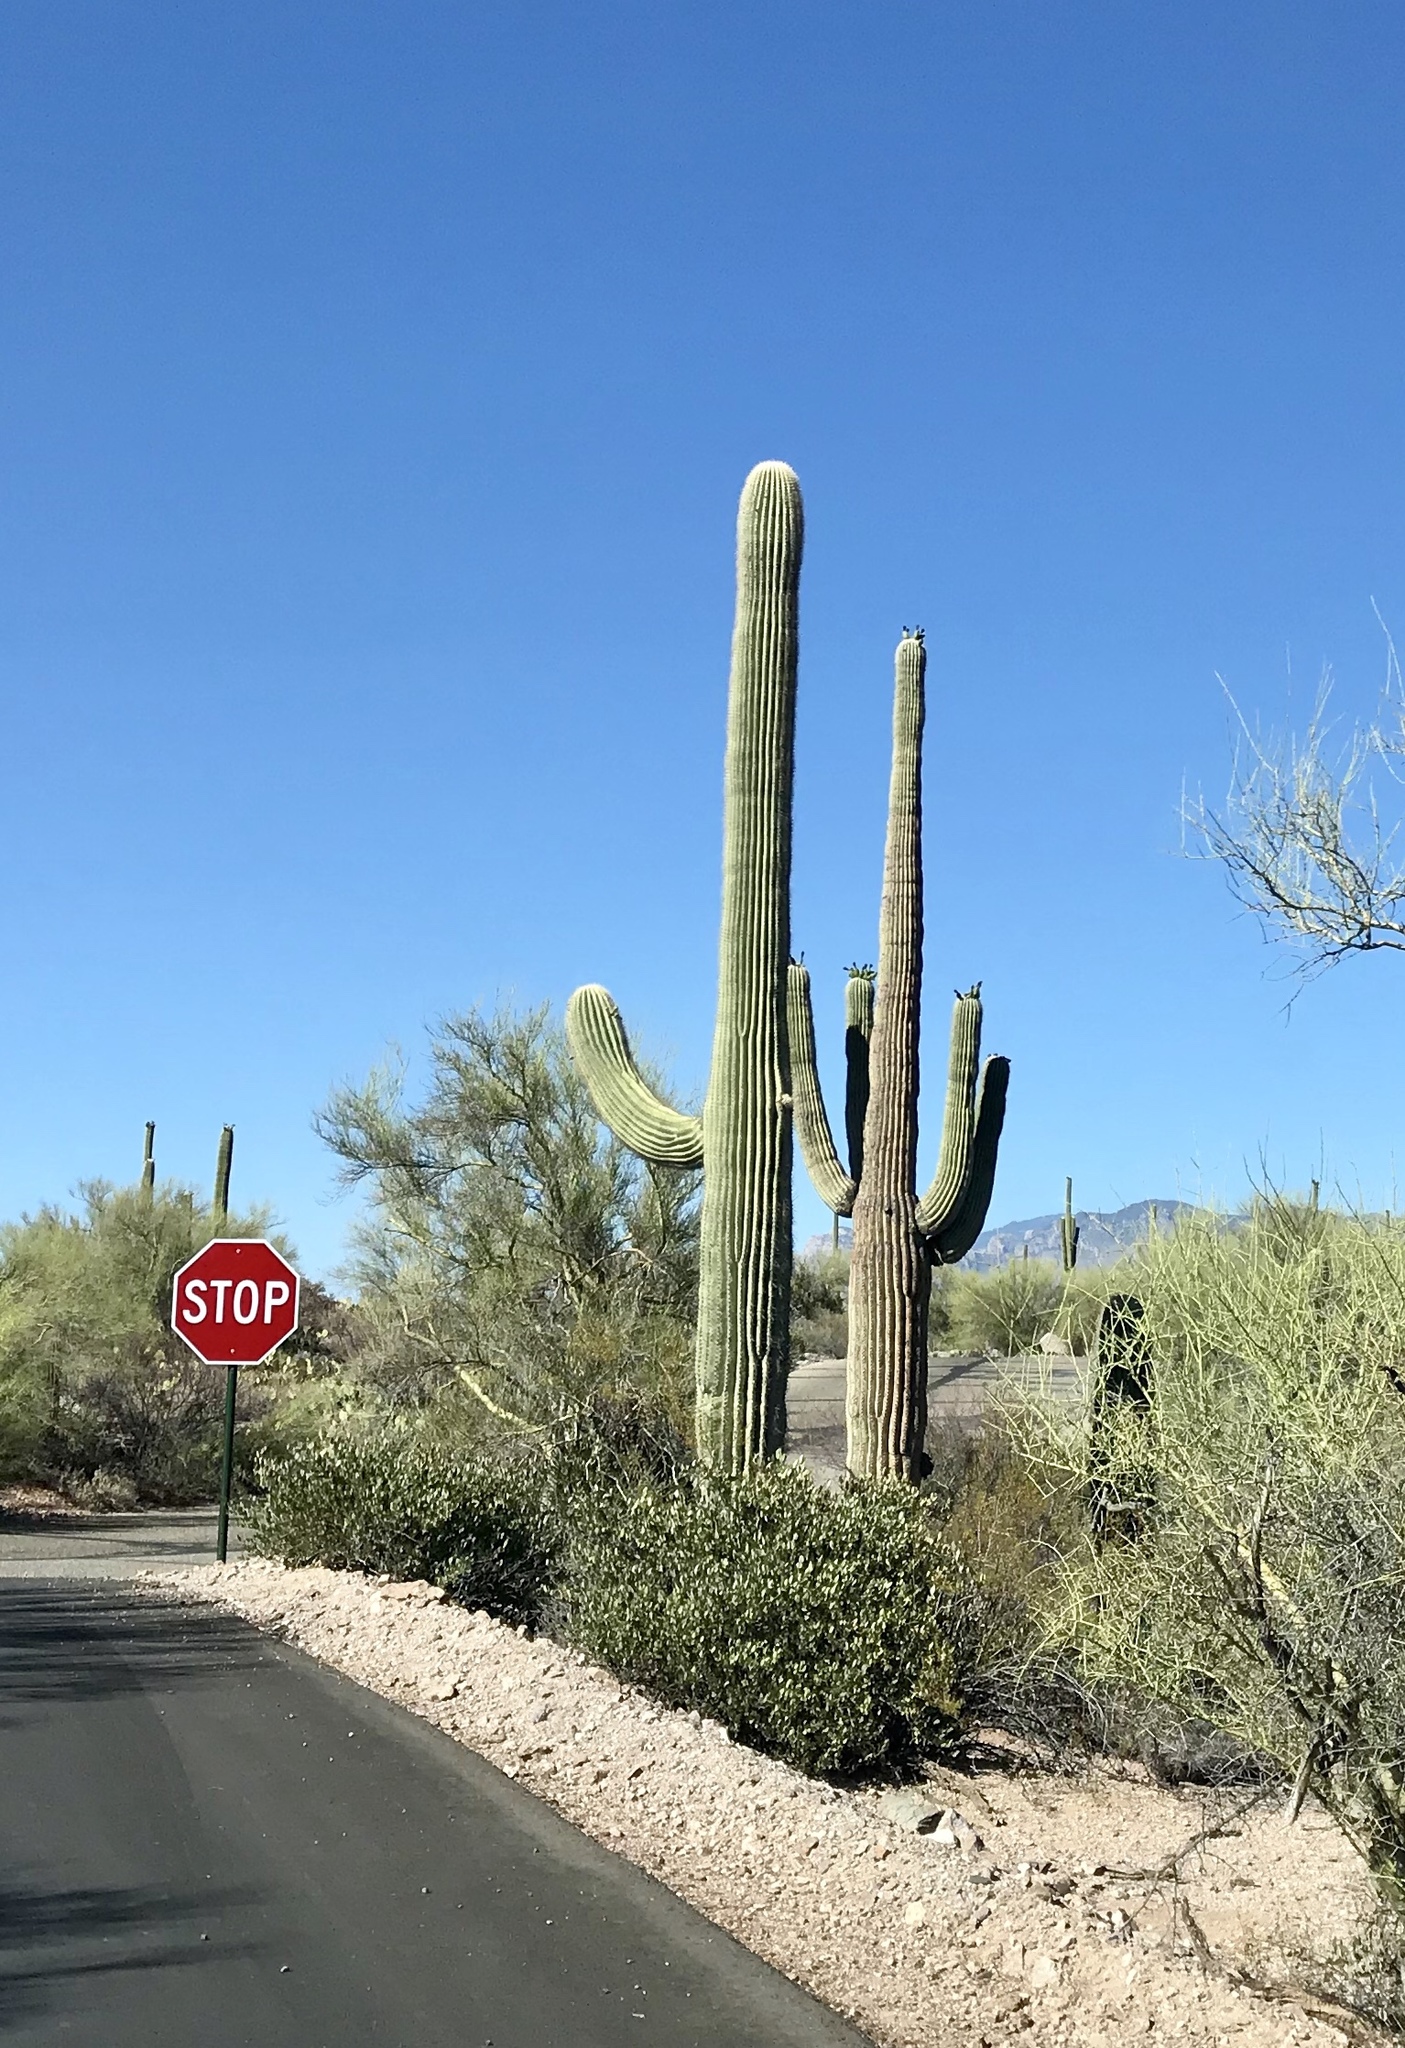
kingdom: Plantae
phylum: Tracheophyta
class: Magnoliopsida
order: Caryophyllales
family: Cactaceae
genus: Carnegiea
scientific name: Carnegiea gigantea
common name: Saguaro
